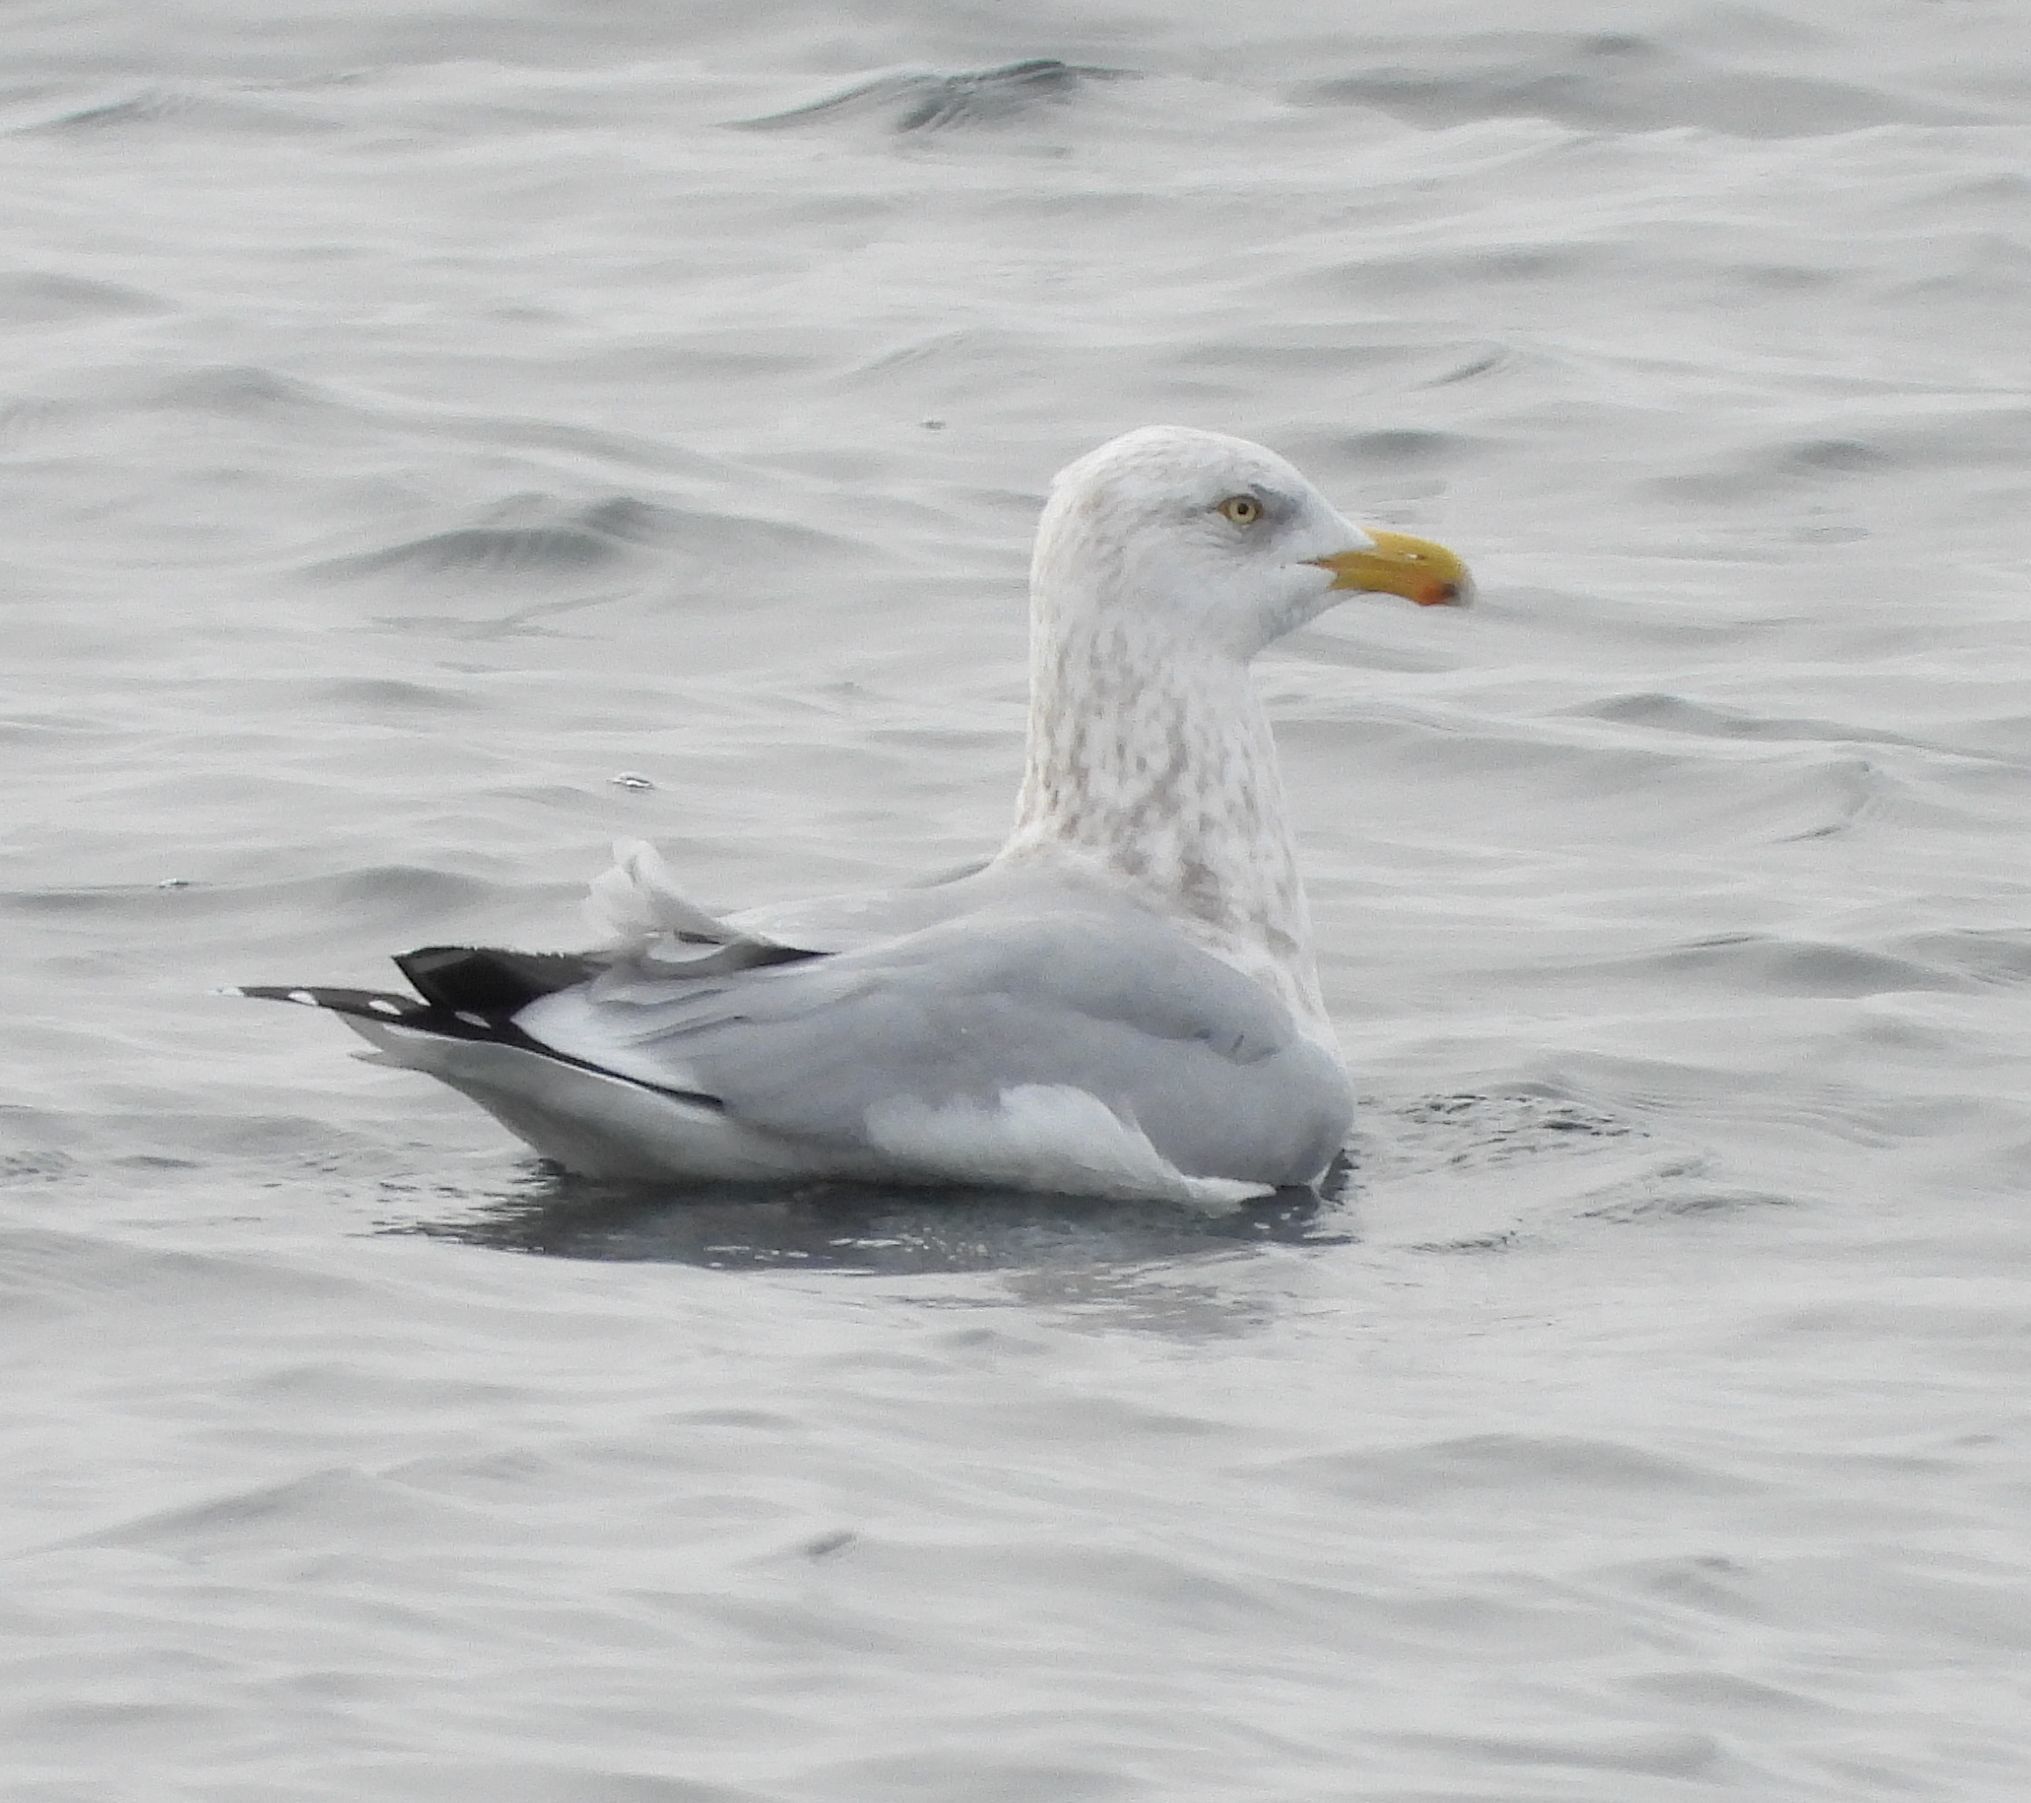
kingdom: Animalia
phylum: Chordata
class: Aves
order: Charadriiformes
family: Laridae
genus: Larus
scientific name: Larus argentatus
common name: Herring gull
